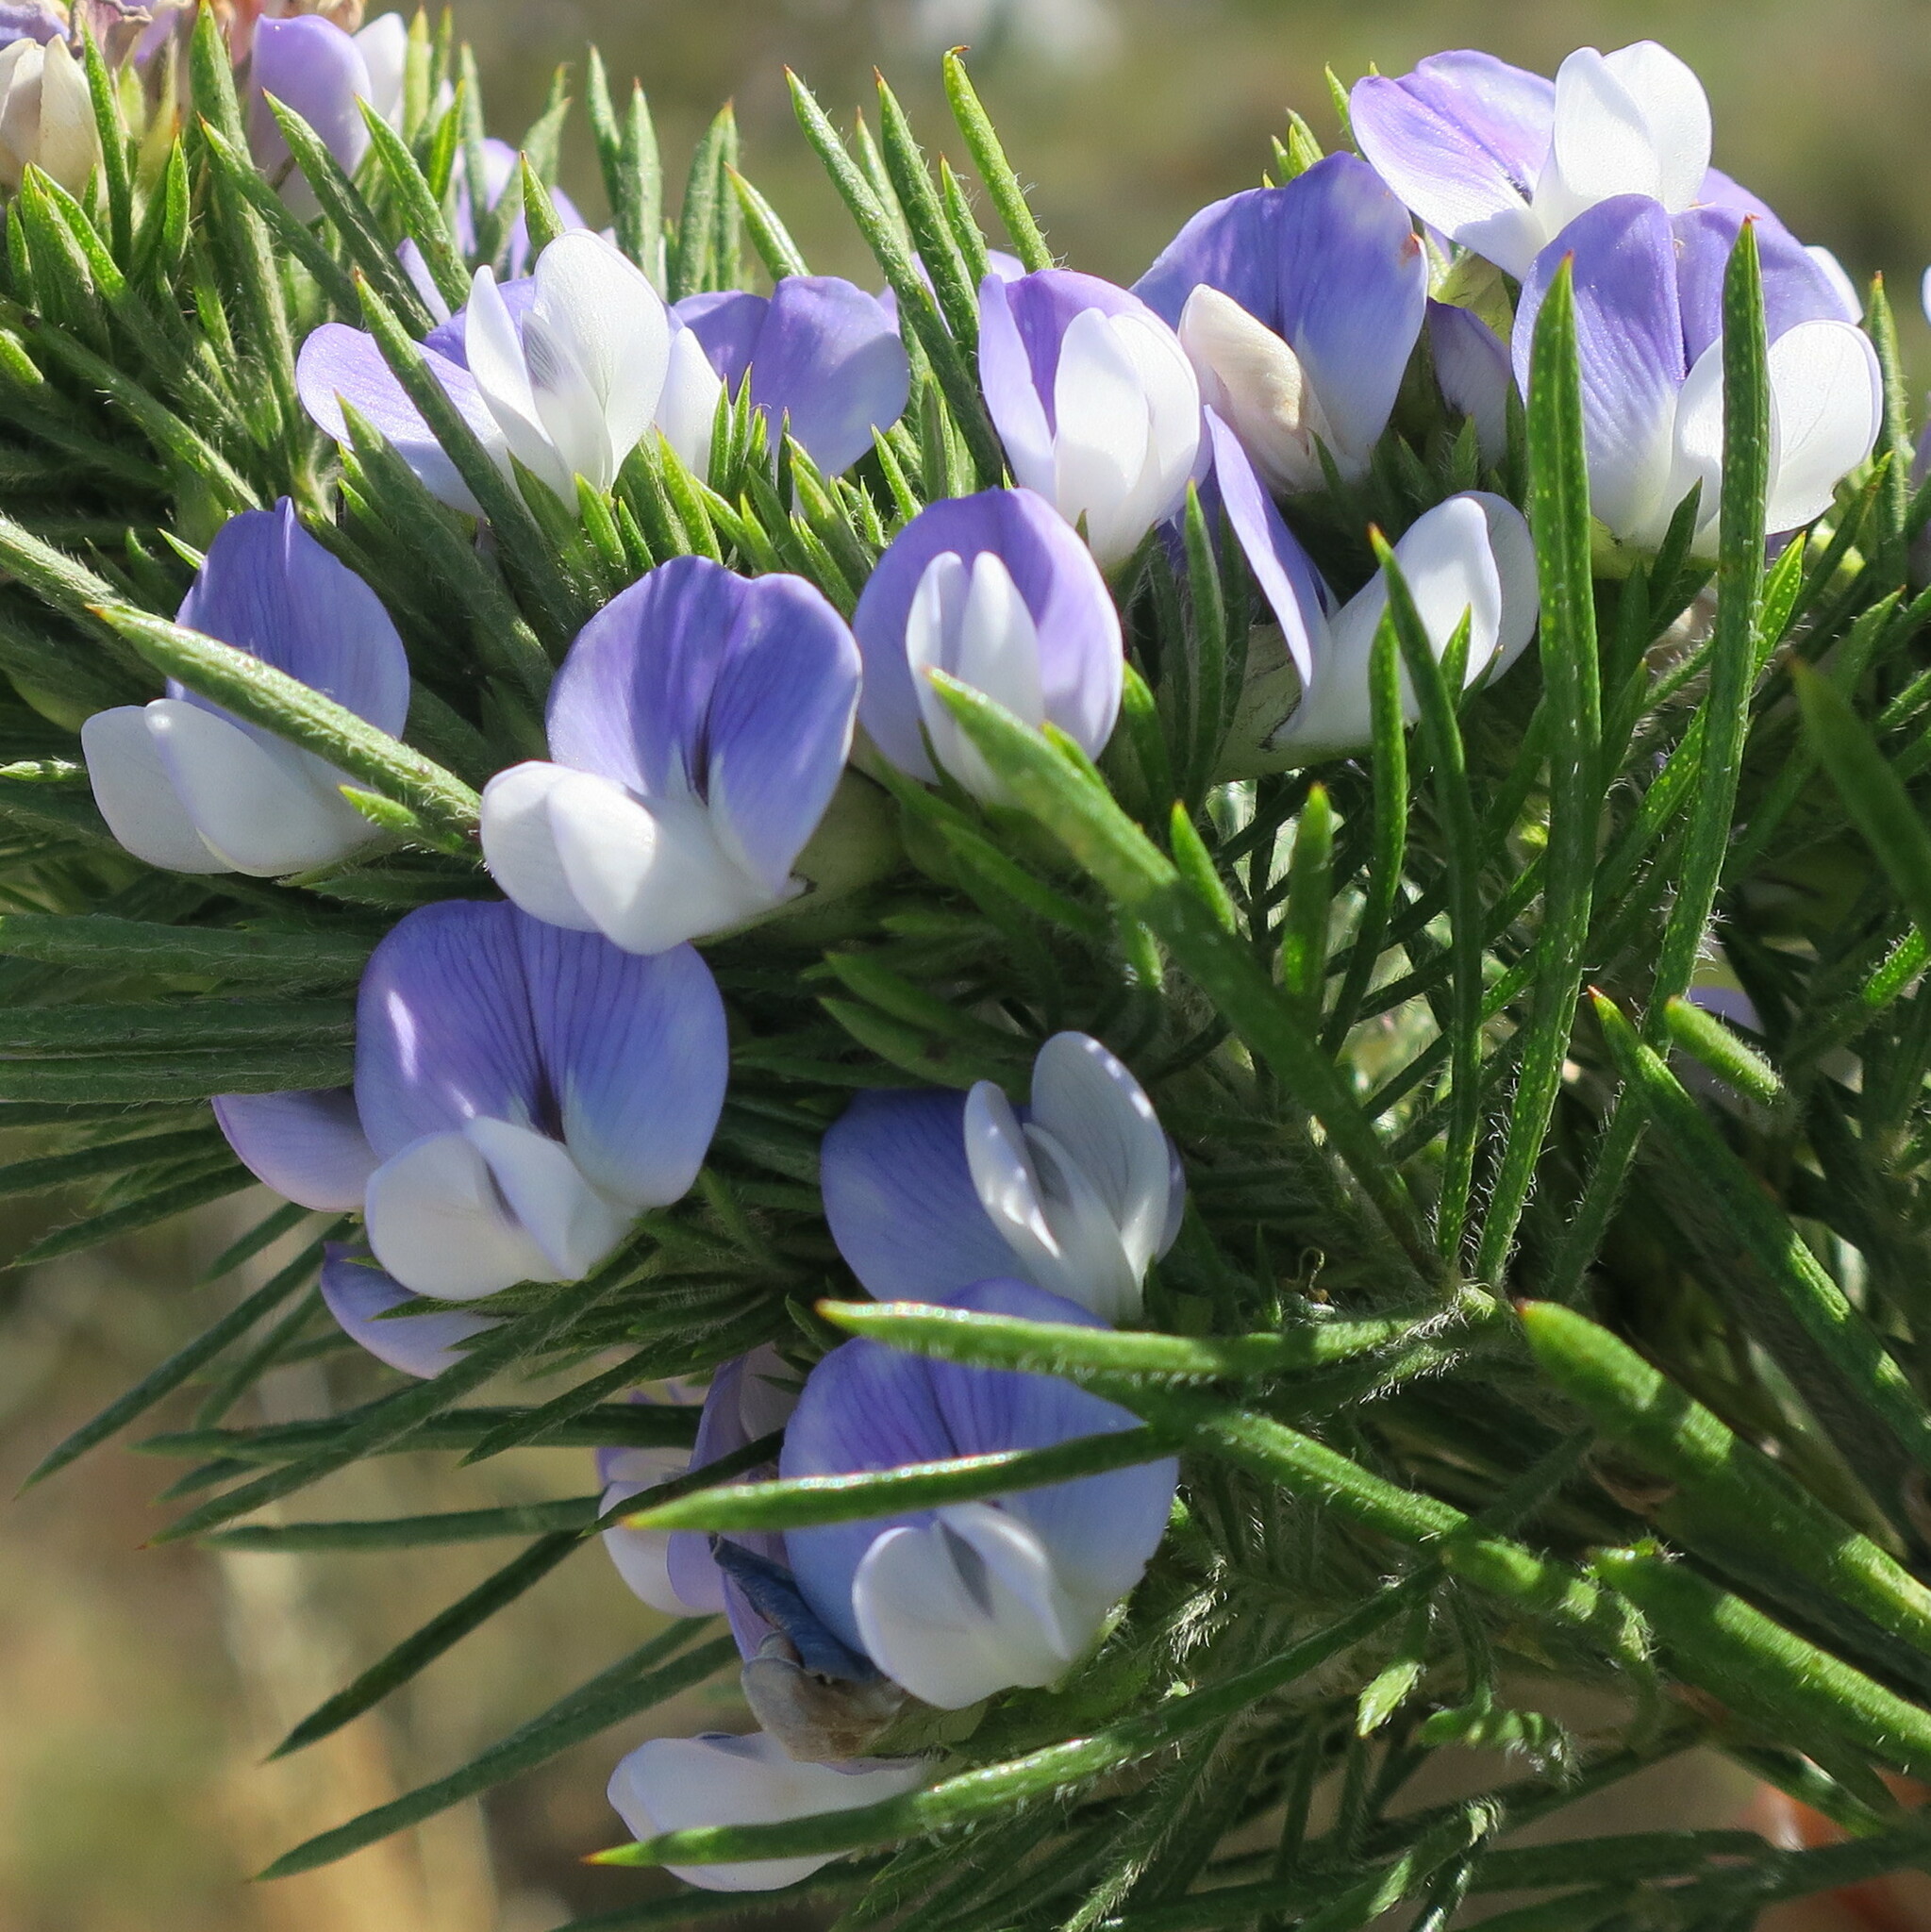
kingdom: Plantae
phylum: Tracheophyta
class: Magnoliopsida
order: Fabales
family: Fabaceae
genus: Psoralea
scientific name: Psoralea pinnata
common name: African scurfpea
